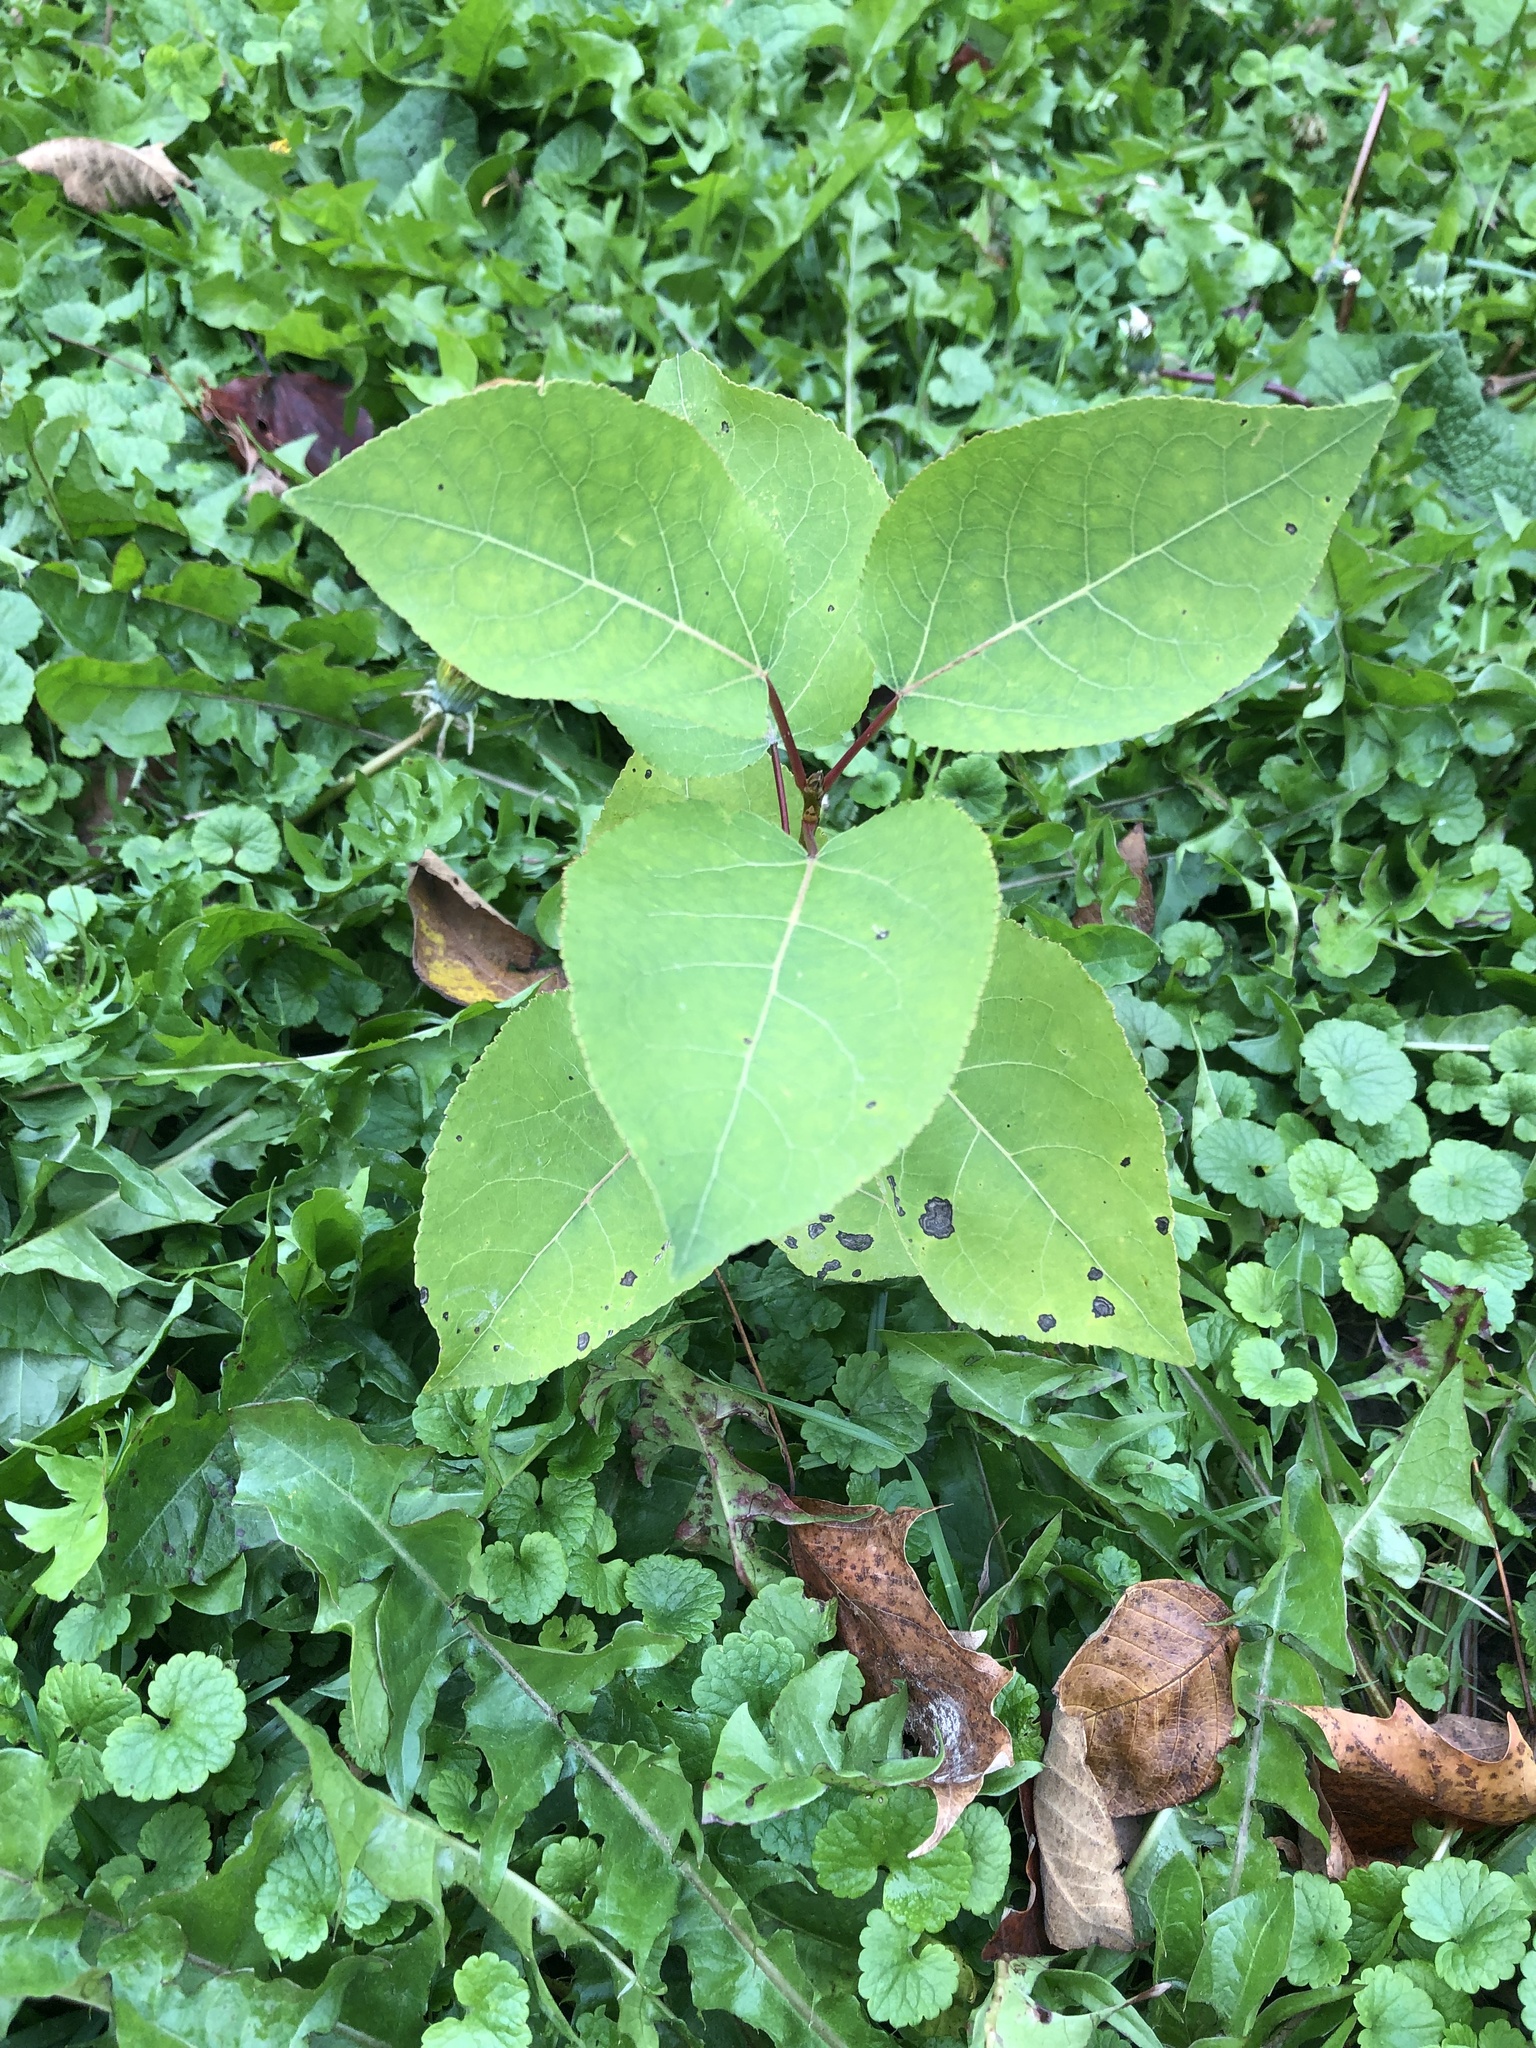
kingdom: Plantae
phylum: Tracheophyta
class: Magnoliopsida
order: Malpighiales
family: Salicaceae
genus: Populus
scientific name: Populus tremuloides
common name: Quaking aspen
